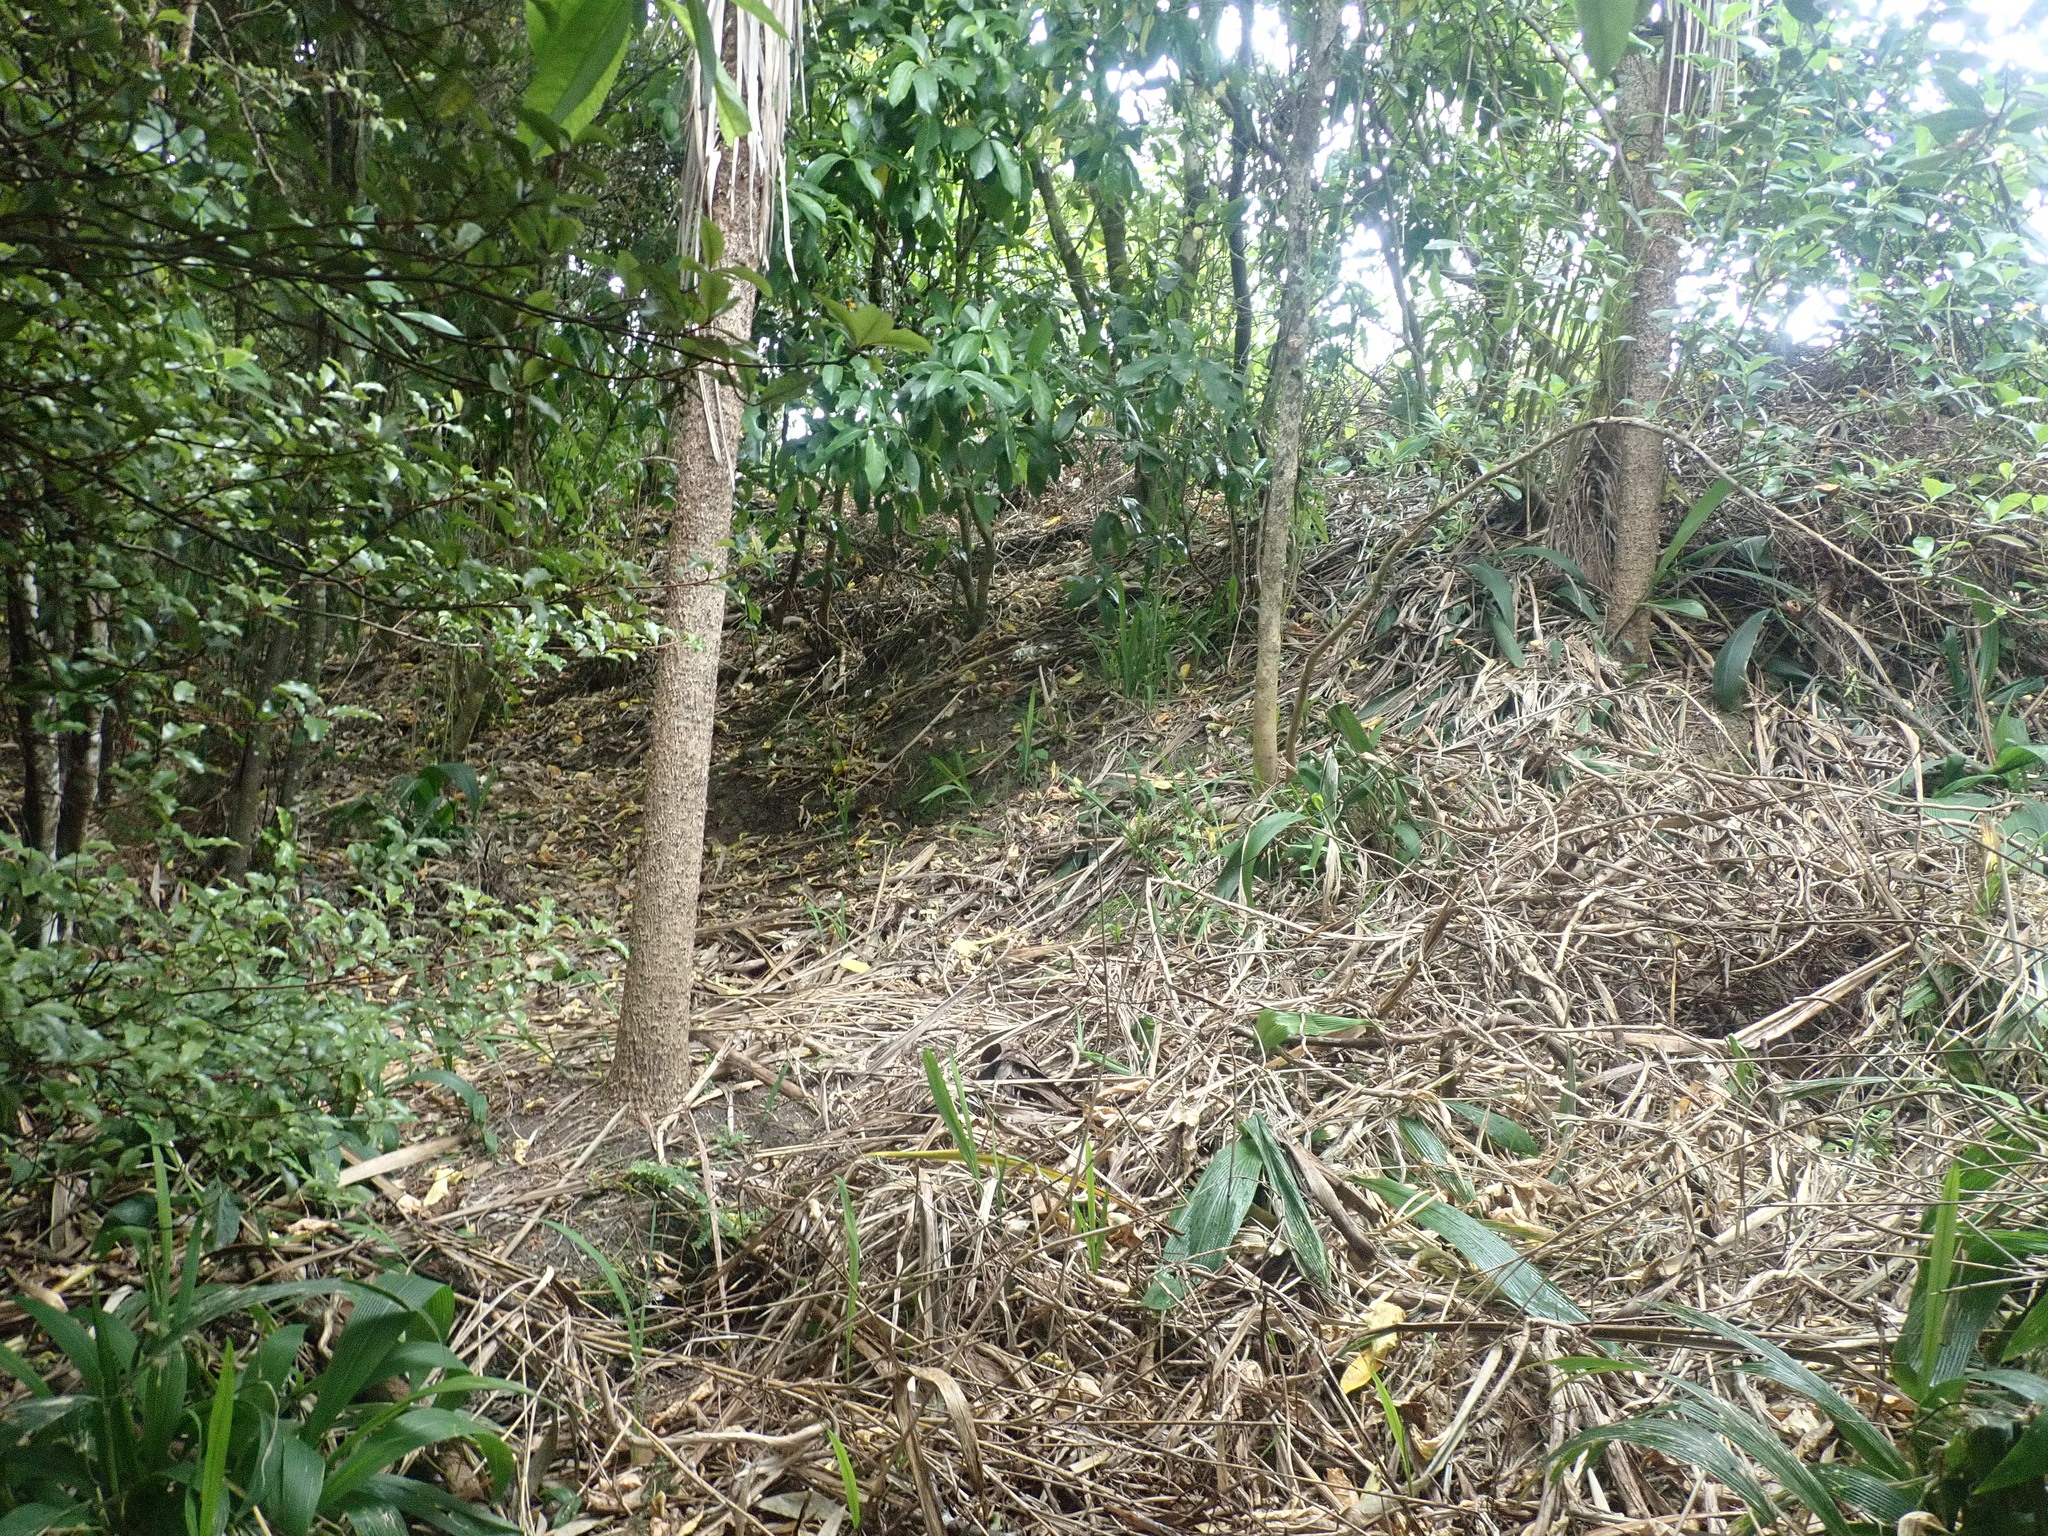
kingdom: Plantae
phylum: Tracheophyta
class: Liliopsida
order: Asparagales
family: Asparagaceae
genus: Cordyline
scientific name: Cordyline australis
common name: Cabbage-palm
